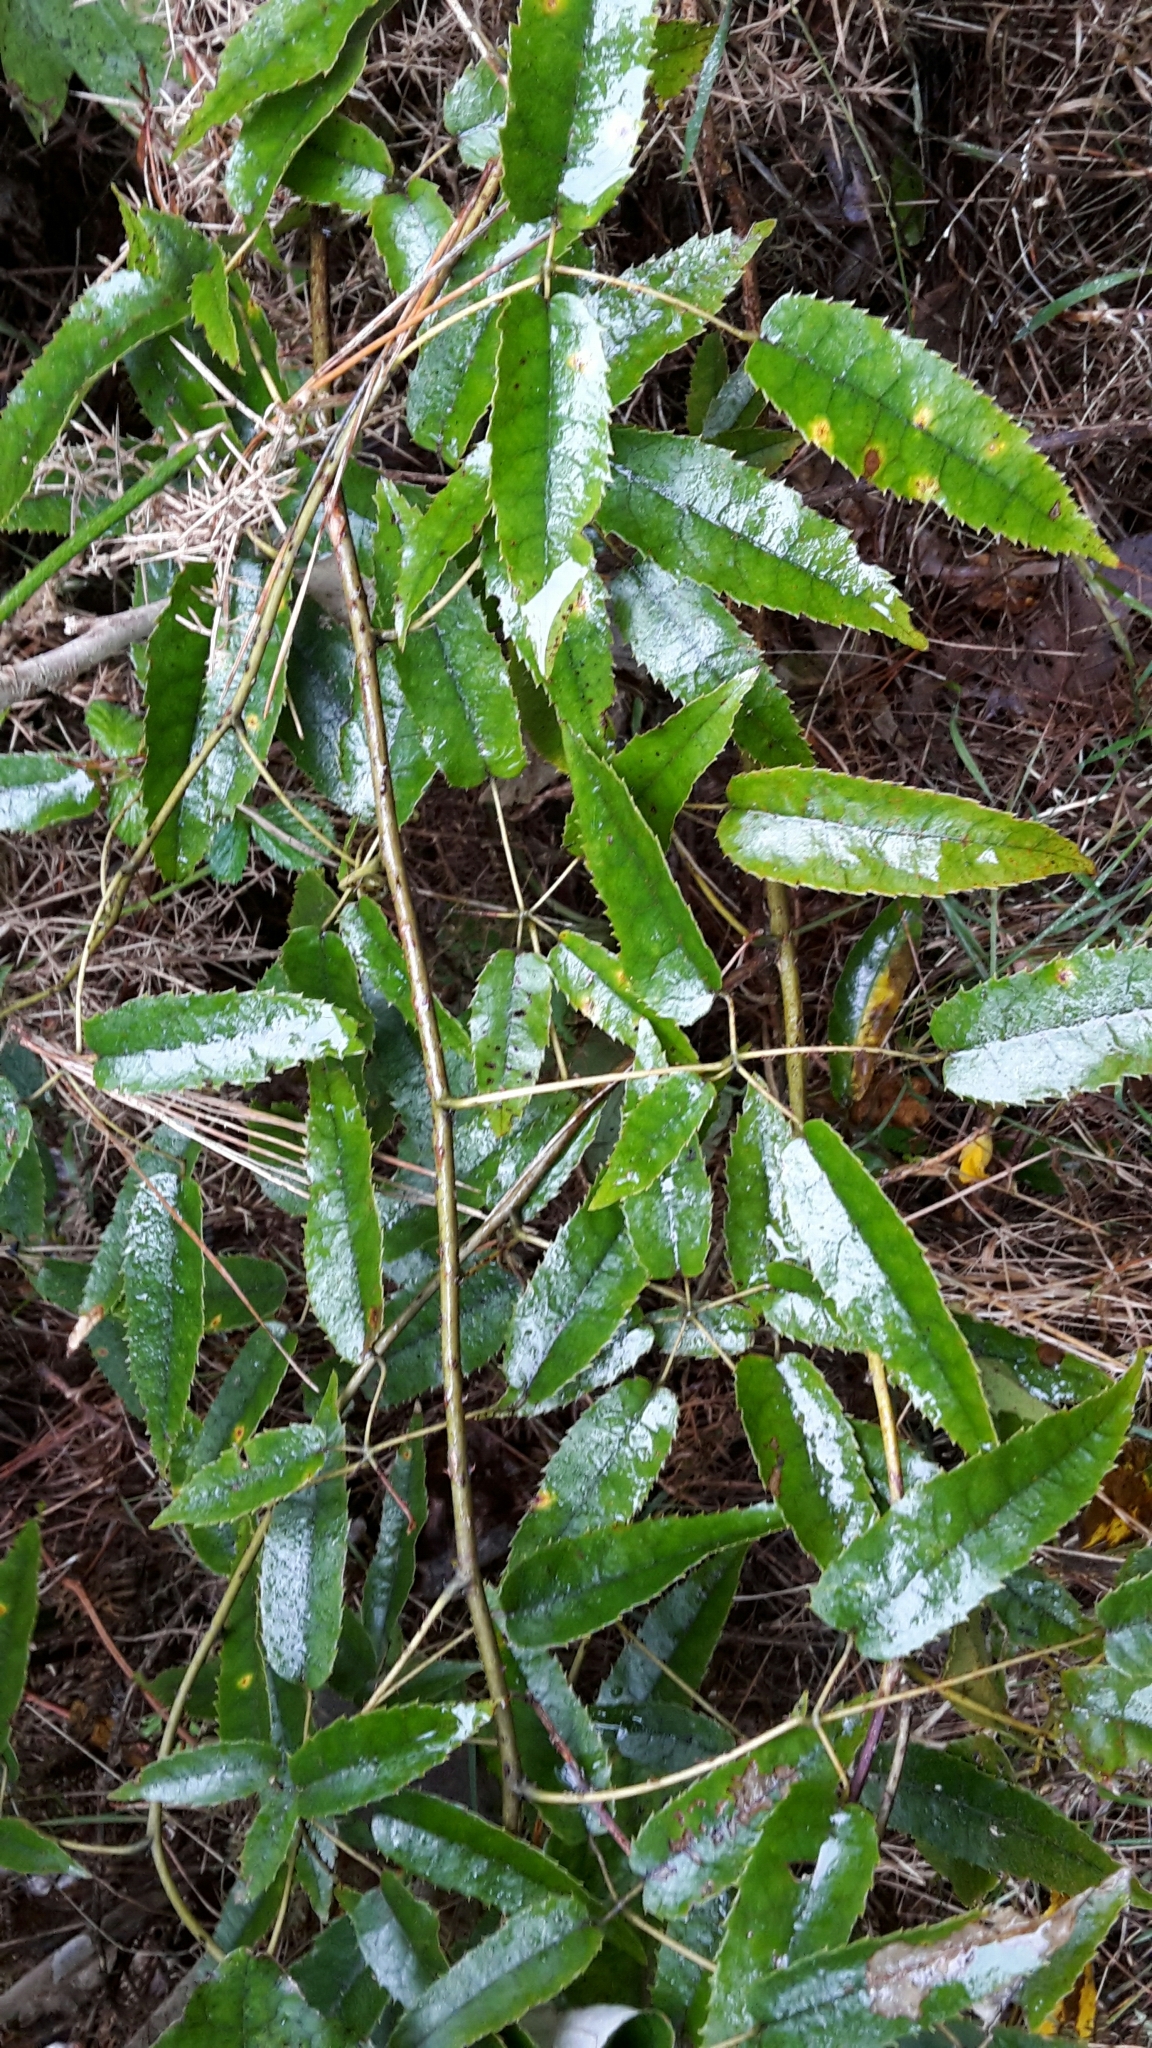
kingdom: Plantae
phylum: Tracheophyta
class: Magnoliopsida
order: Rosales
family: Rosaceae
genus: Rubus
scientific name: Rubus cissoides
